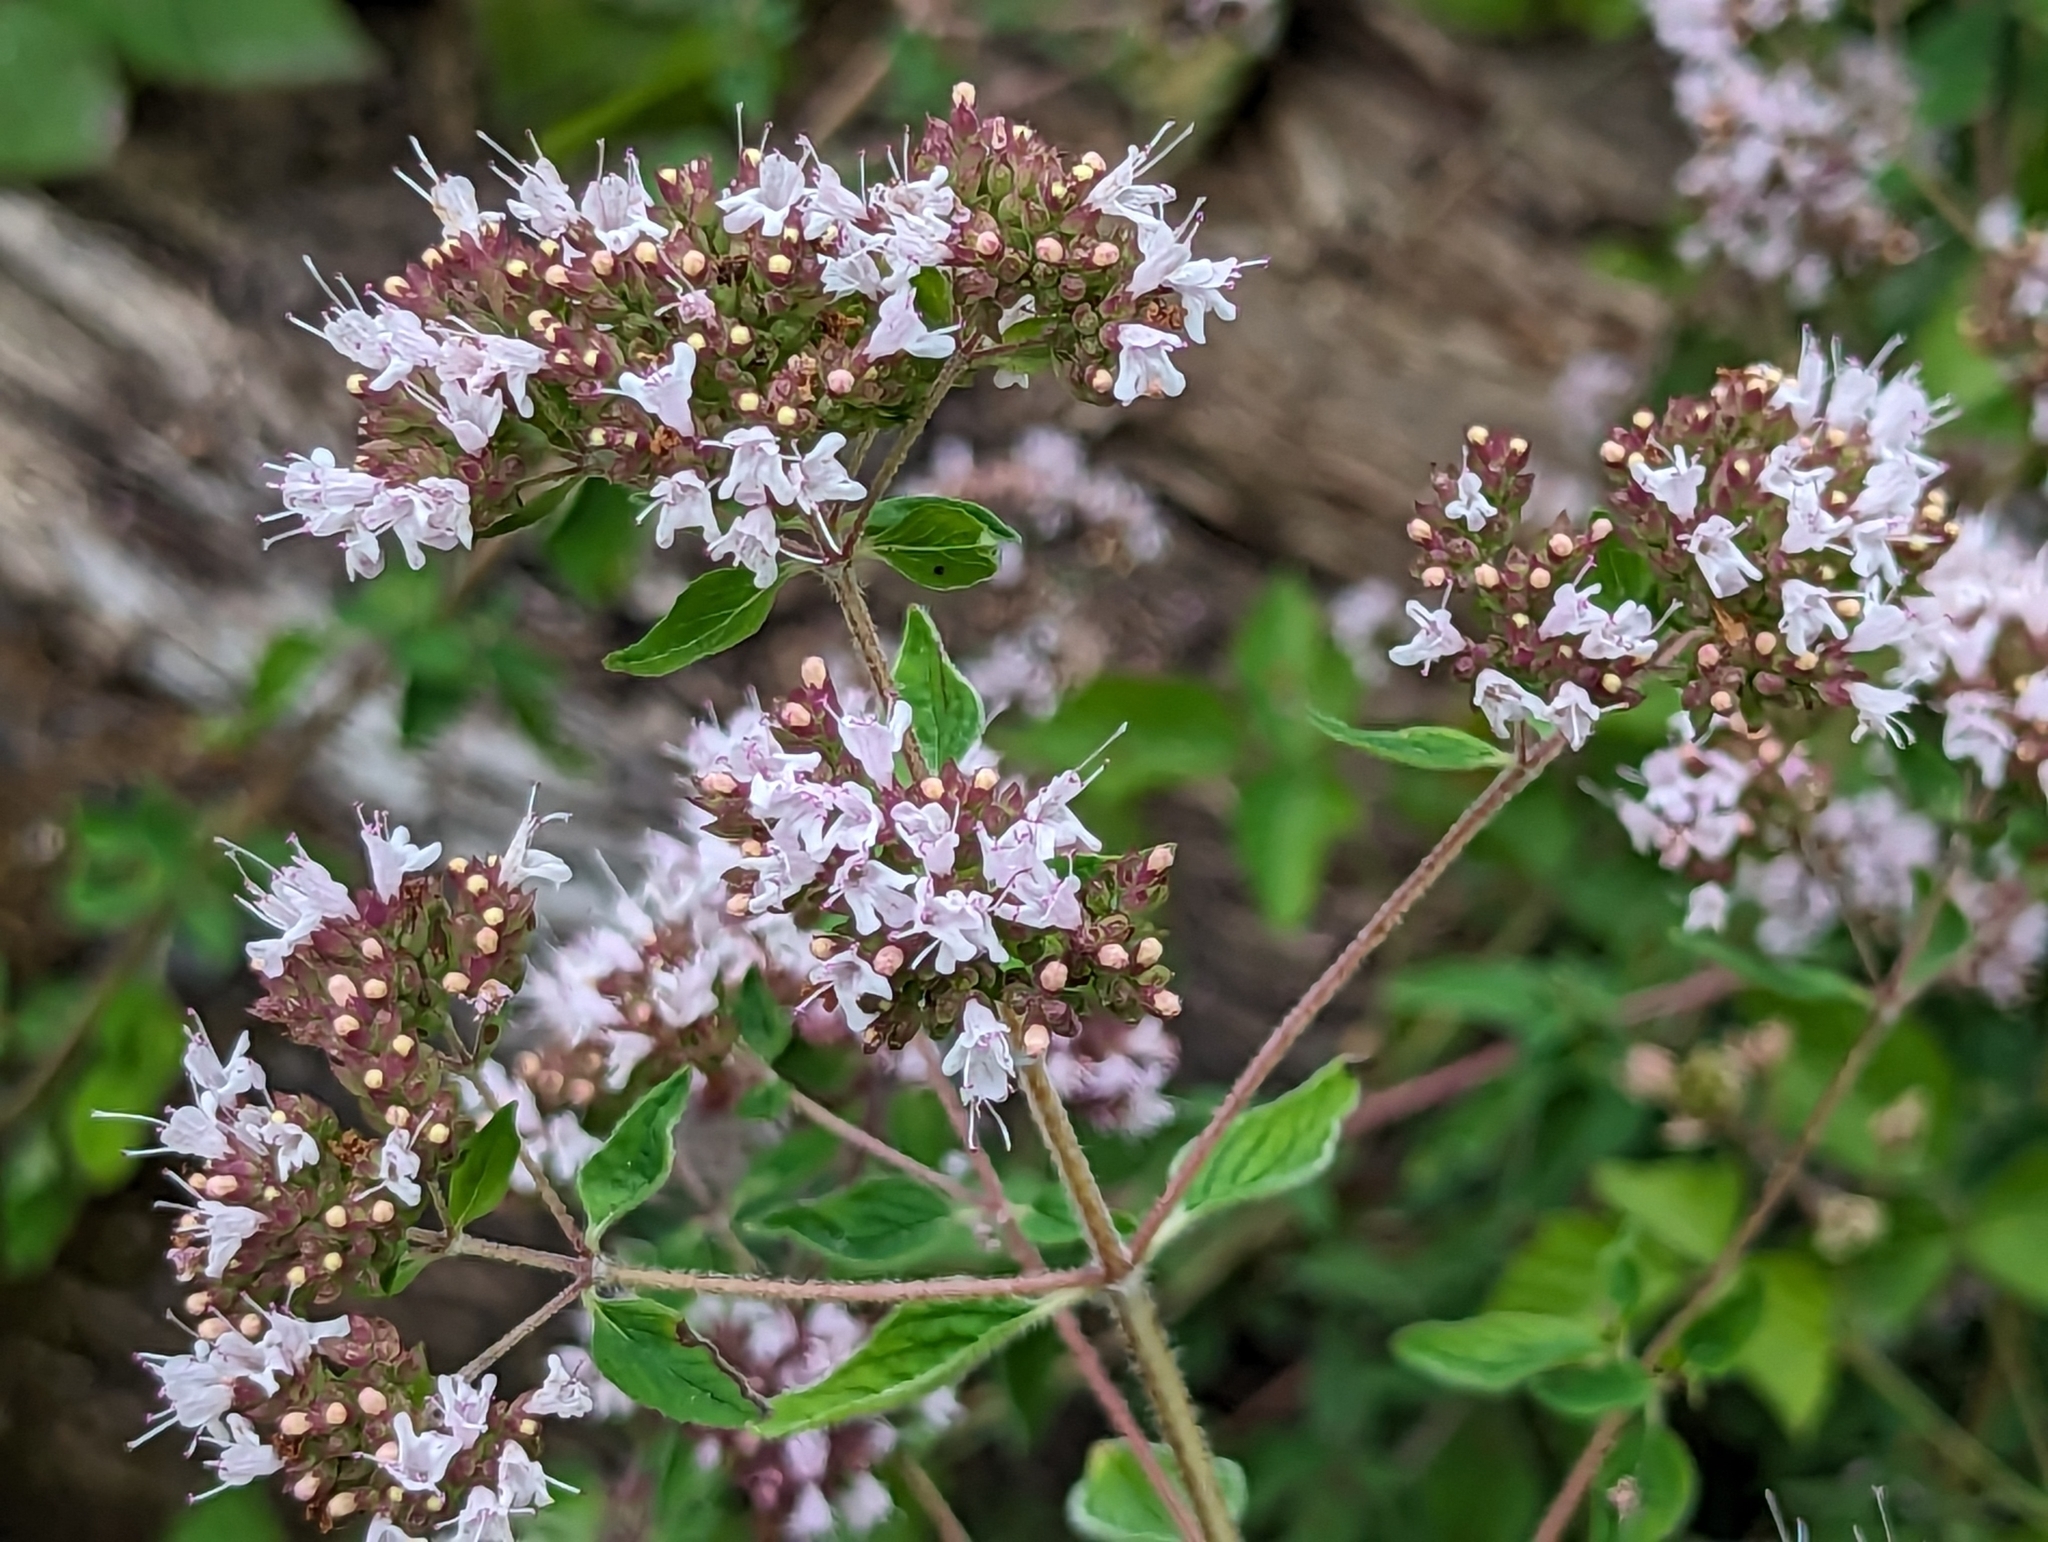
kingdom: Plantae
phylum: Tracheophyta
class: Magnoliopsida
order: Lamiales
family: Lamiaceae
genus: Origanum
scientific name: Origanum vulgare
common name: Wild marjoram
